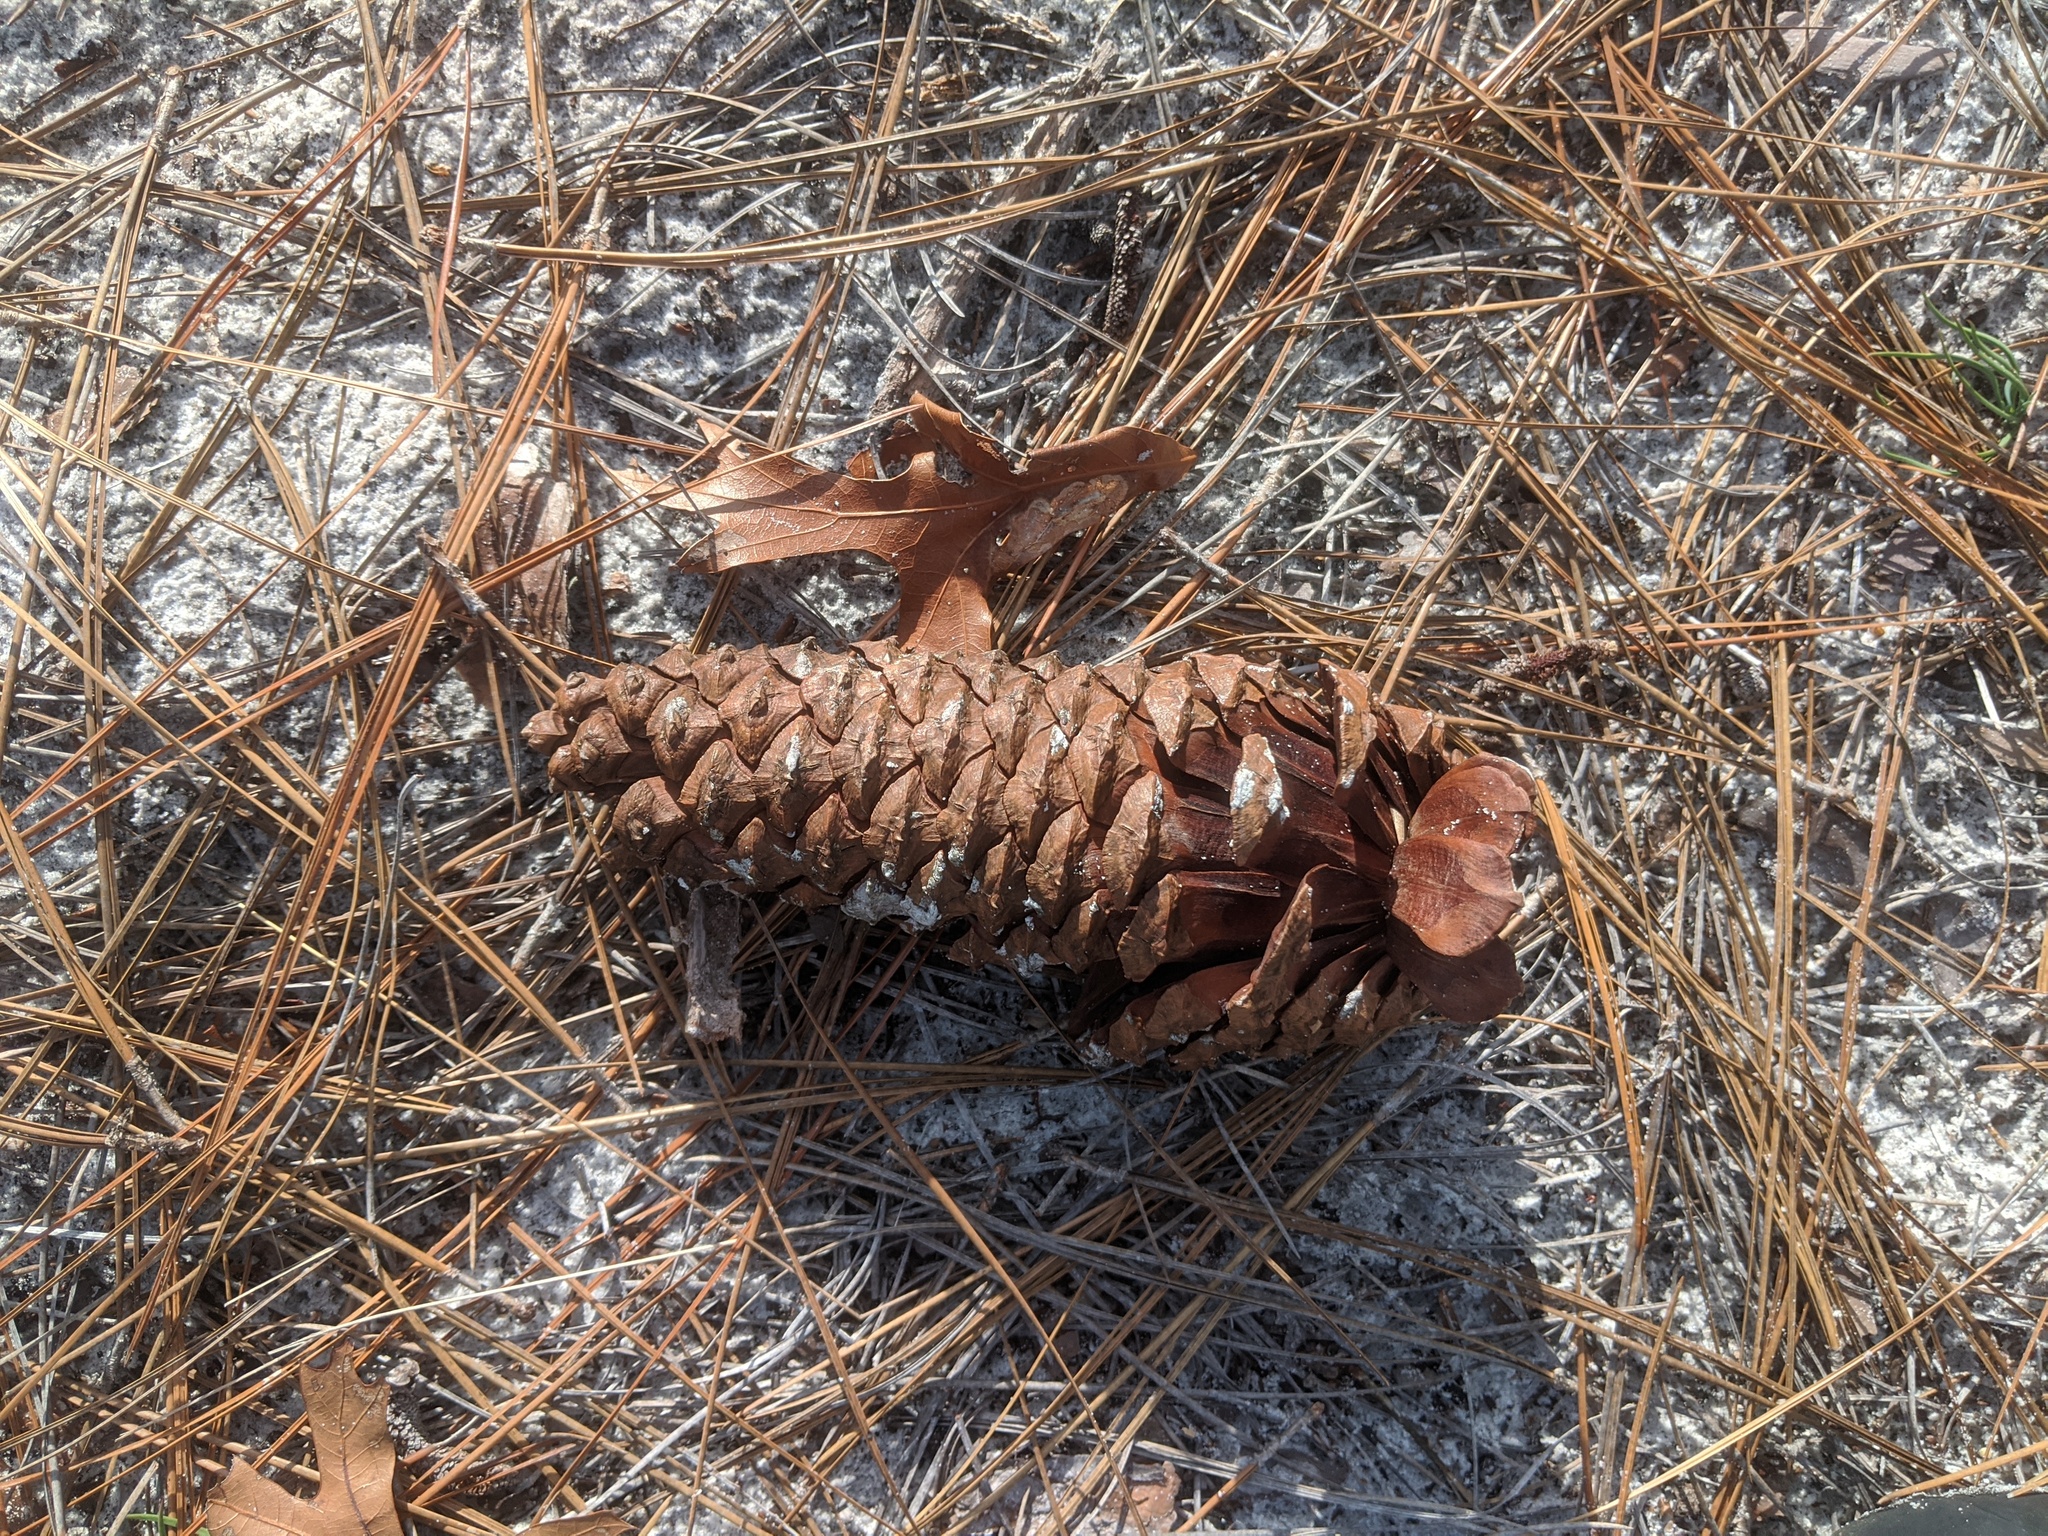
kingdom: Plantae
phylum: Tracheophyta
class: Pinopsida
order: Pinales
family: Pinaceae
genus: Pinus
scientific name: Pinus palustris
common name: Longleaf pine
